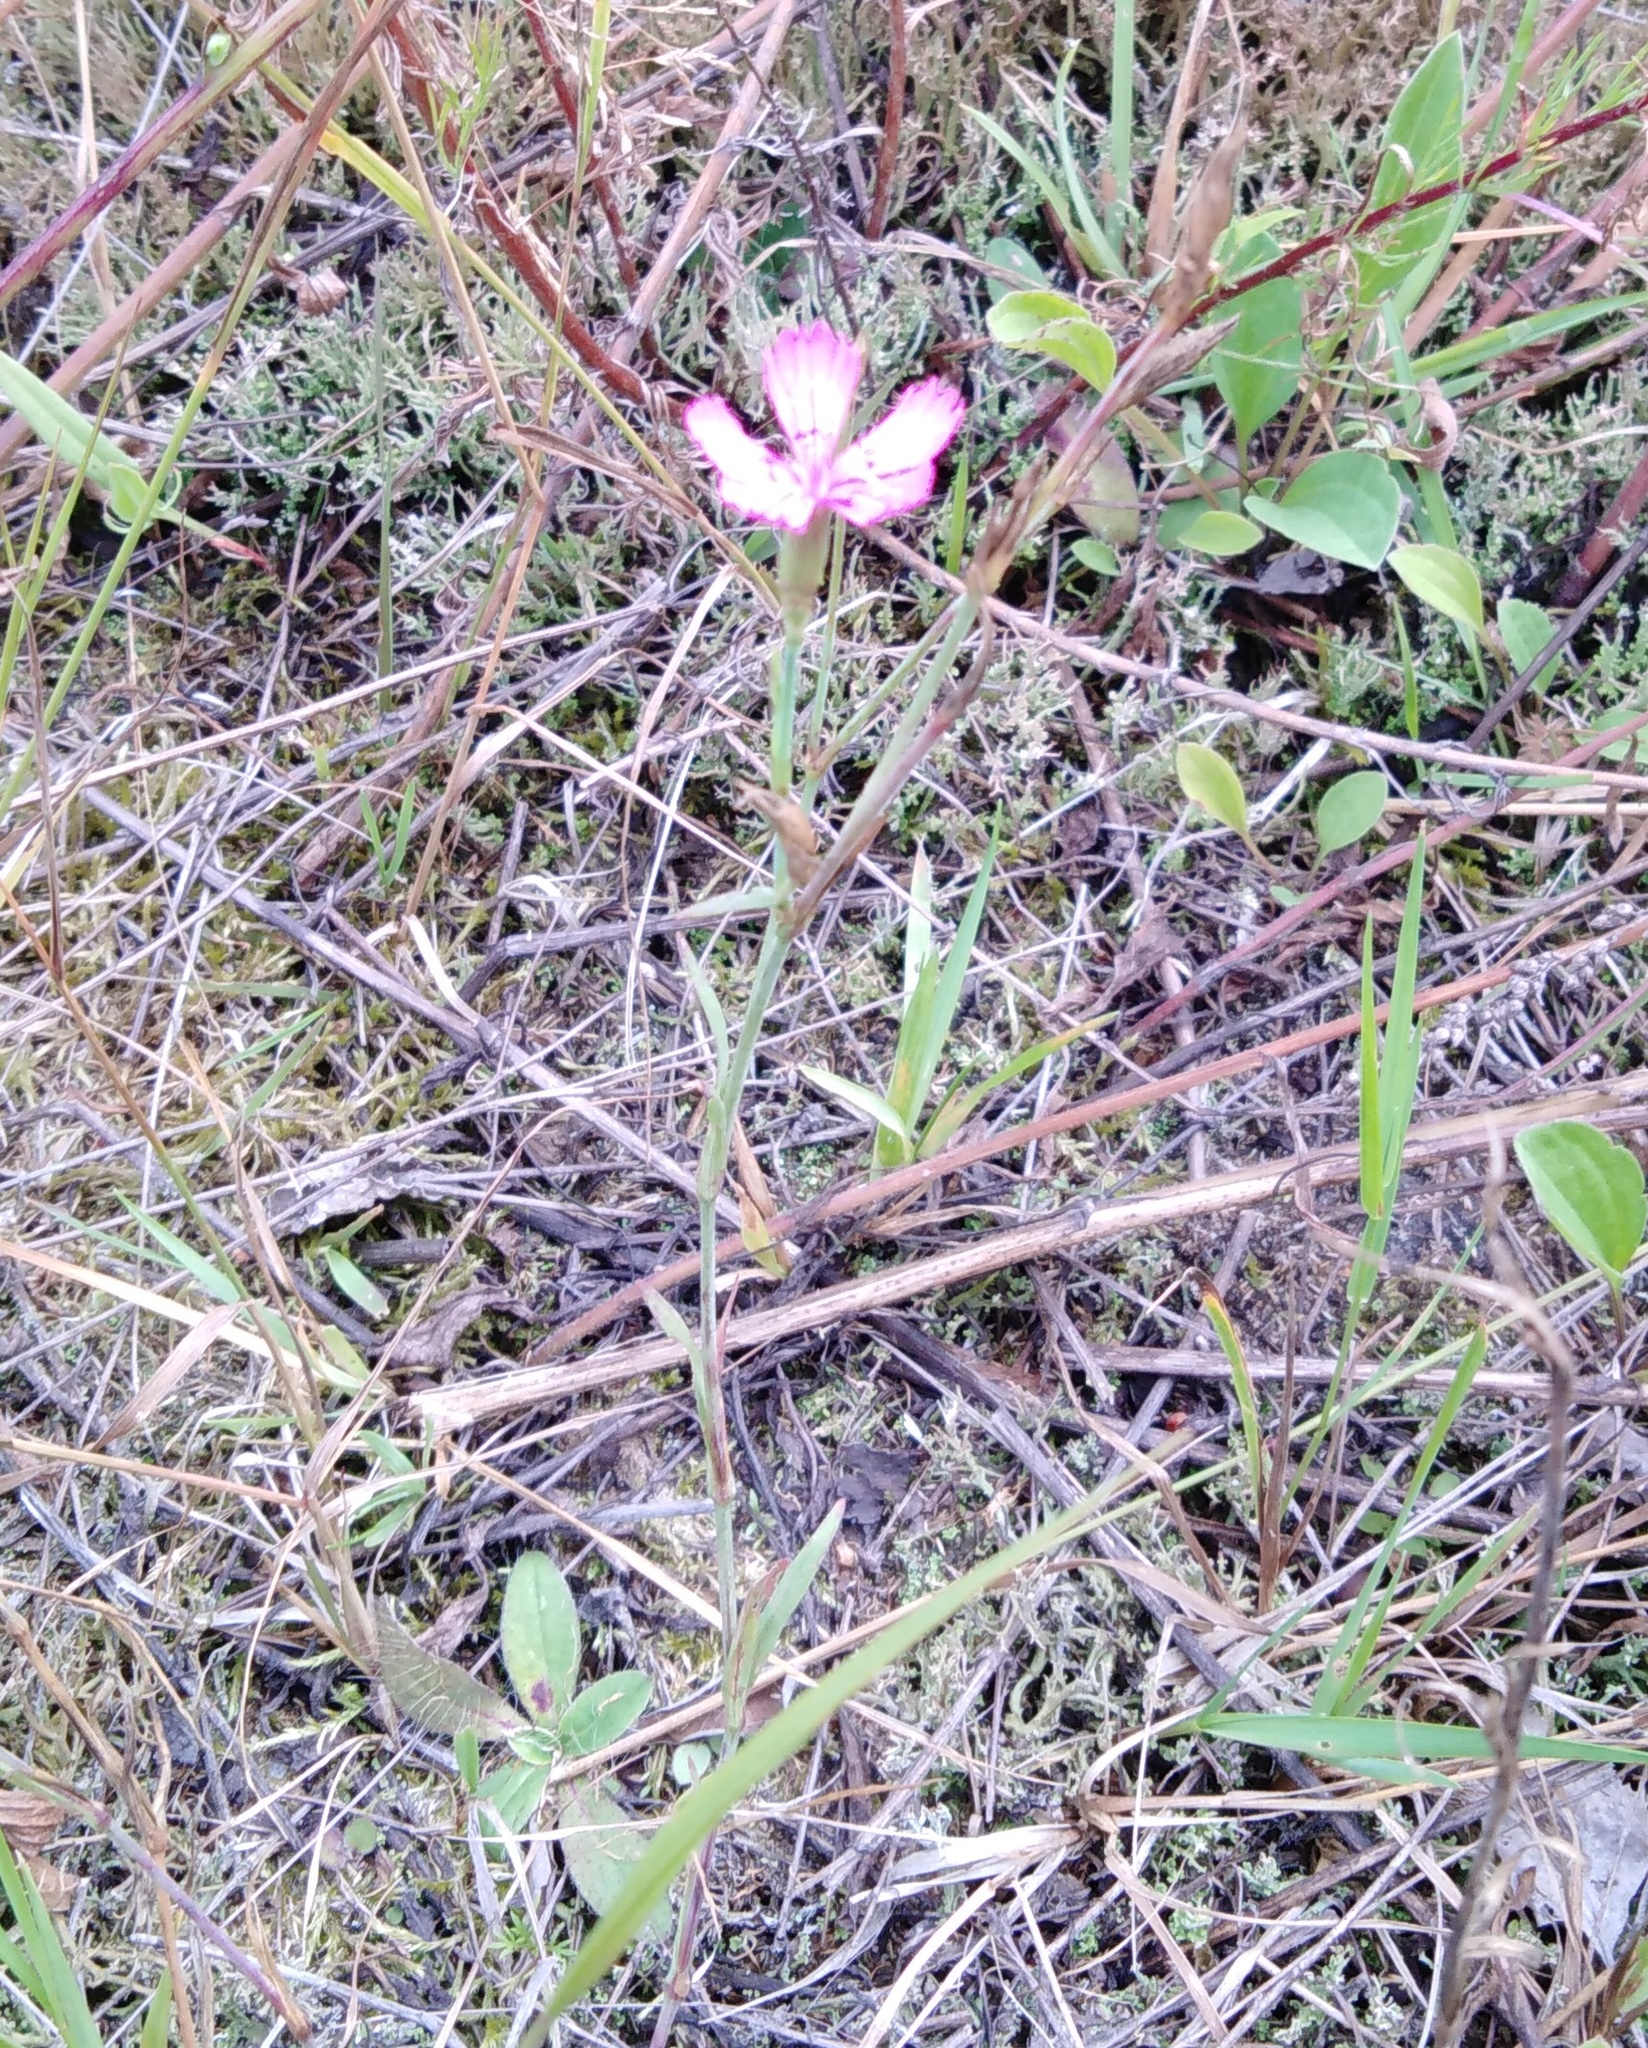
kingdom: Plantae
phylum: Tracheophyta
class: Magnoliopsida
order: Caryophyllales
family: Caryophyllaceae
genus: Dianthus
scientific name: Dianthus deltoides
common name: Maiden pink
